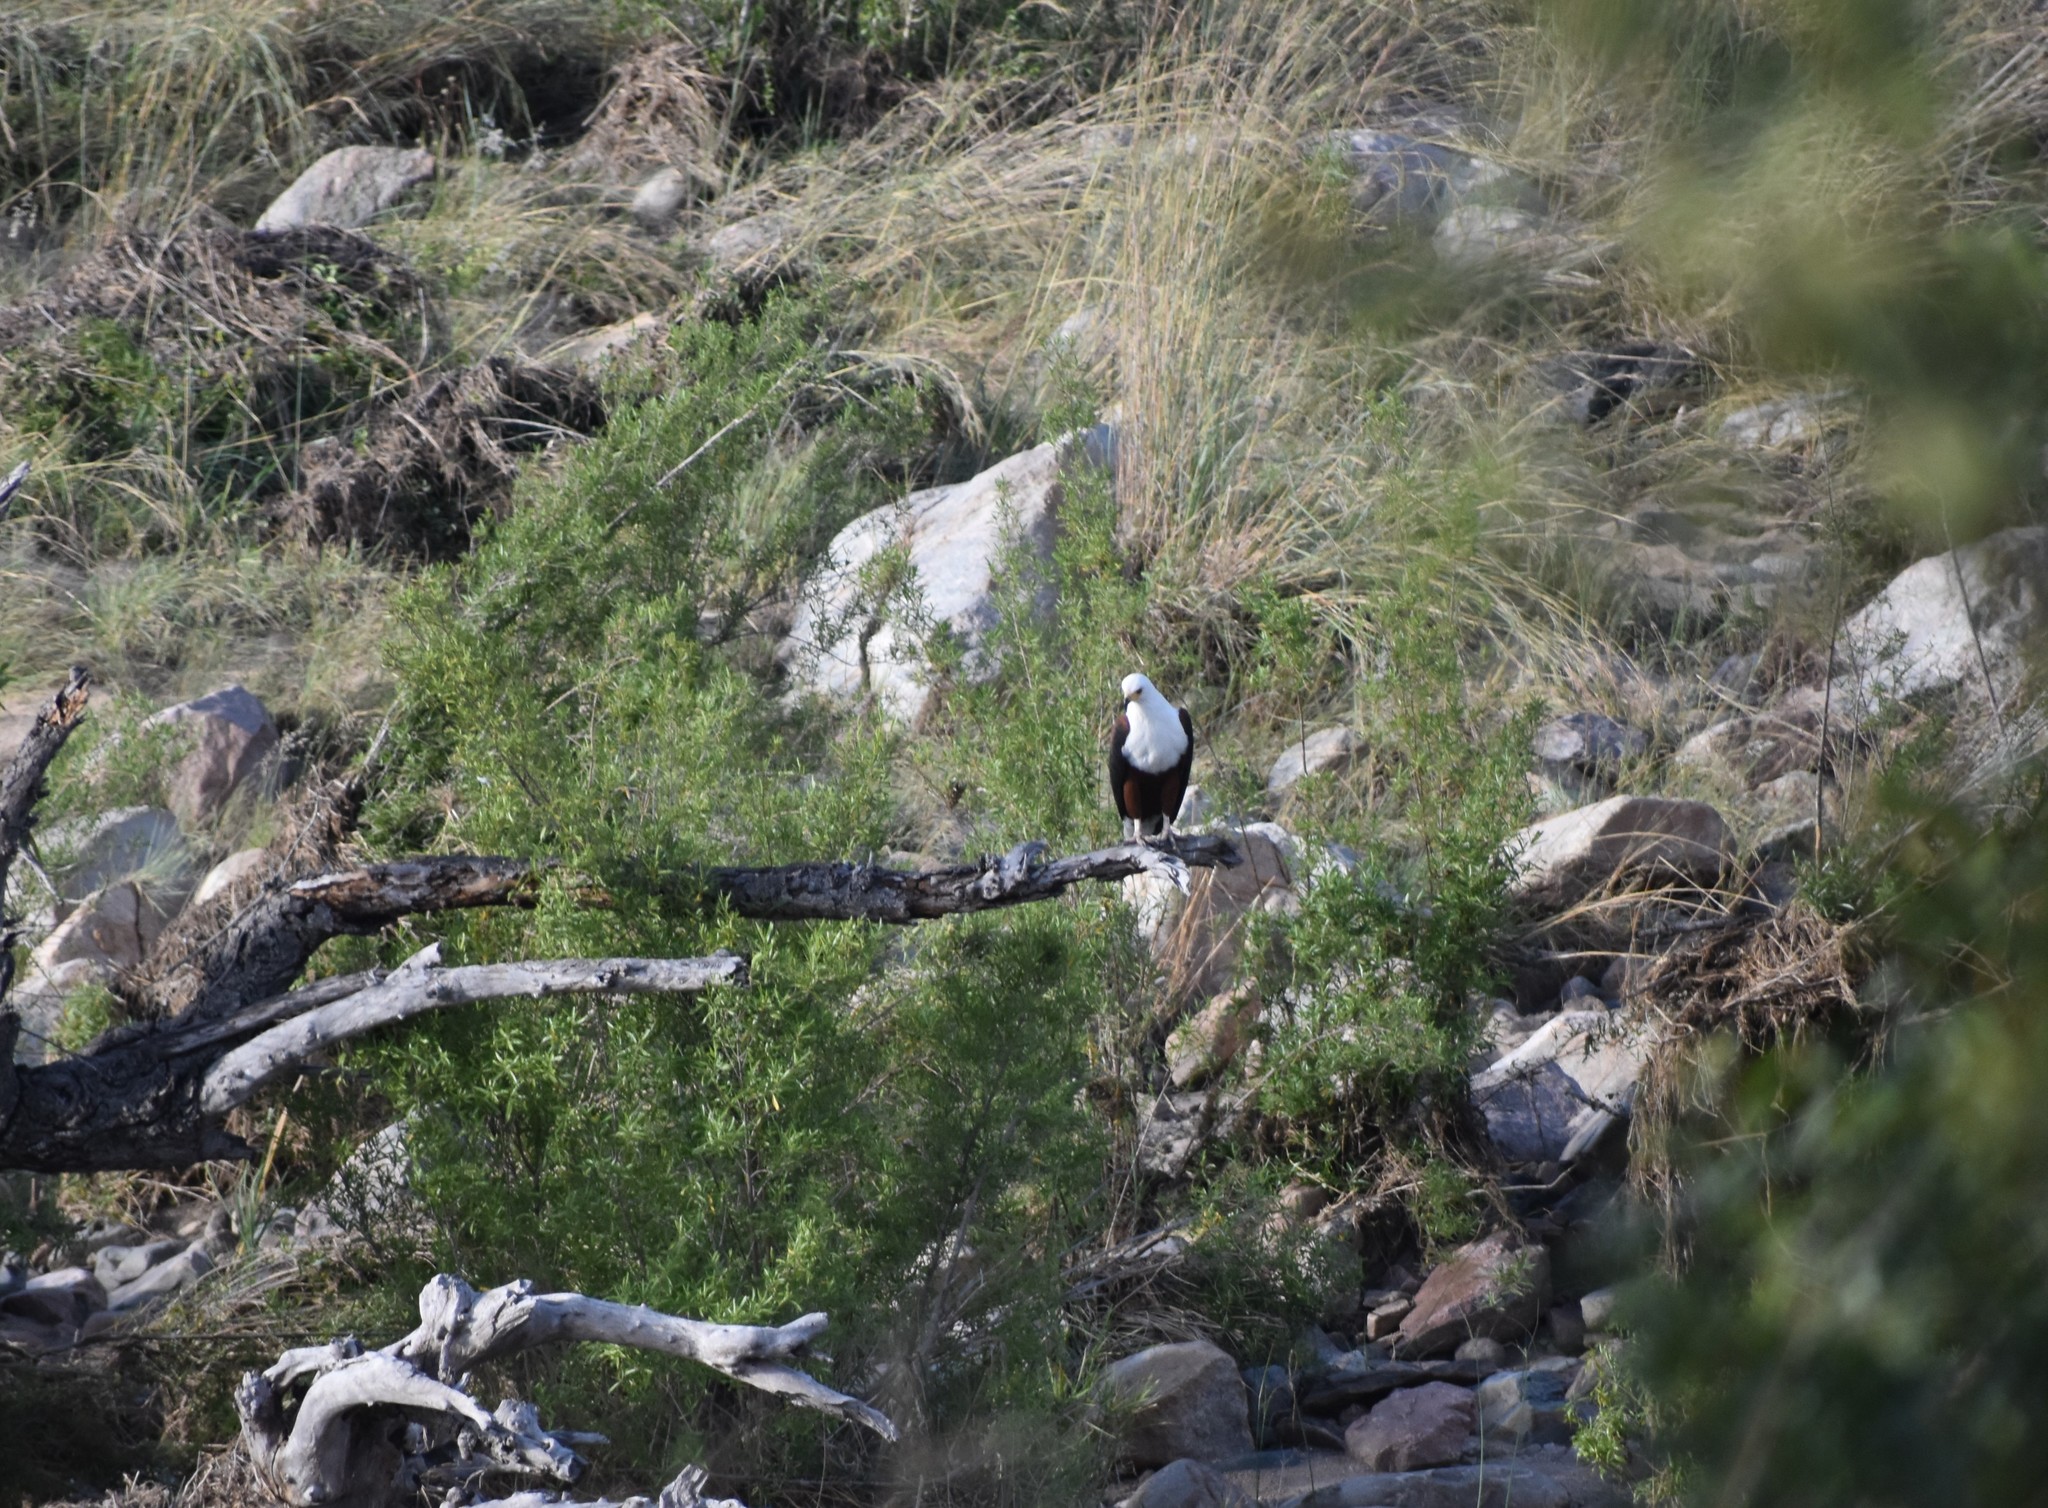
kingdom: Animalia
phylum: Chordata
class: Aves
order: Accipitriformes
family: Accipitridae
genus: Haliaeetus
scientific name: Haliaeetus vocifer
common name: African fish eagle
